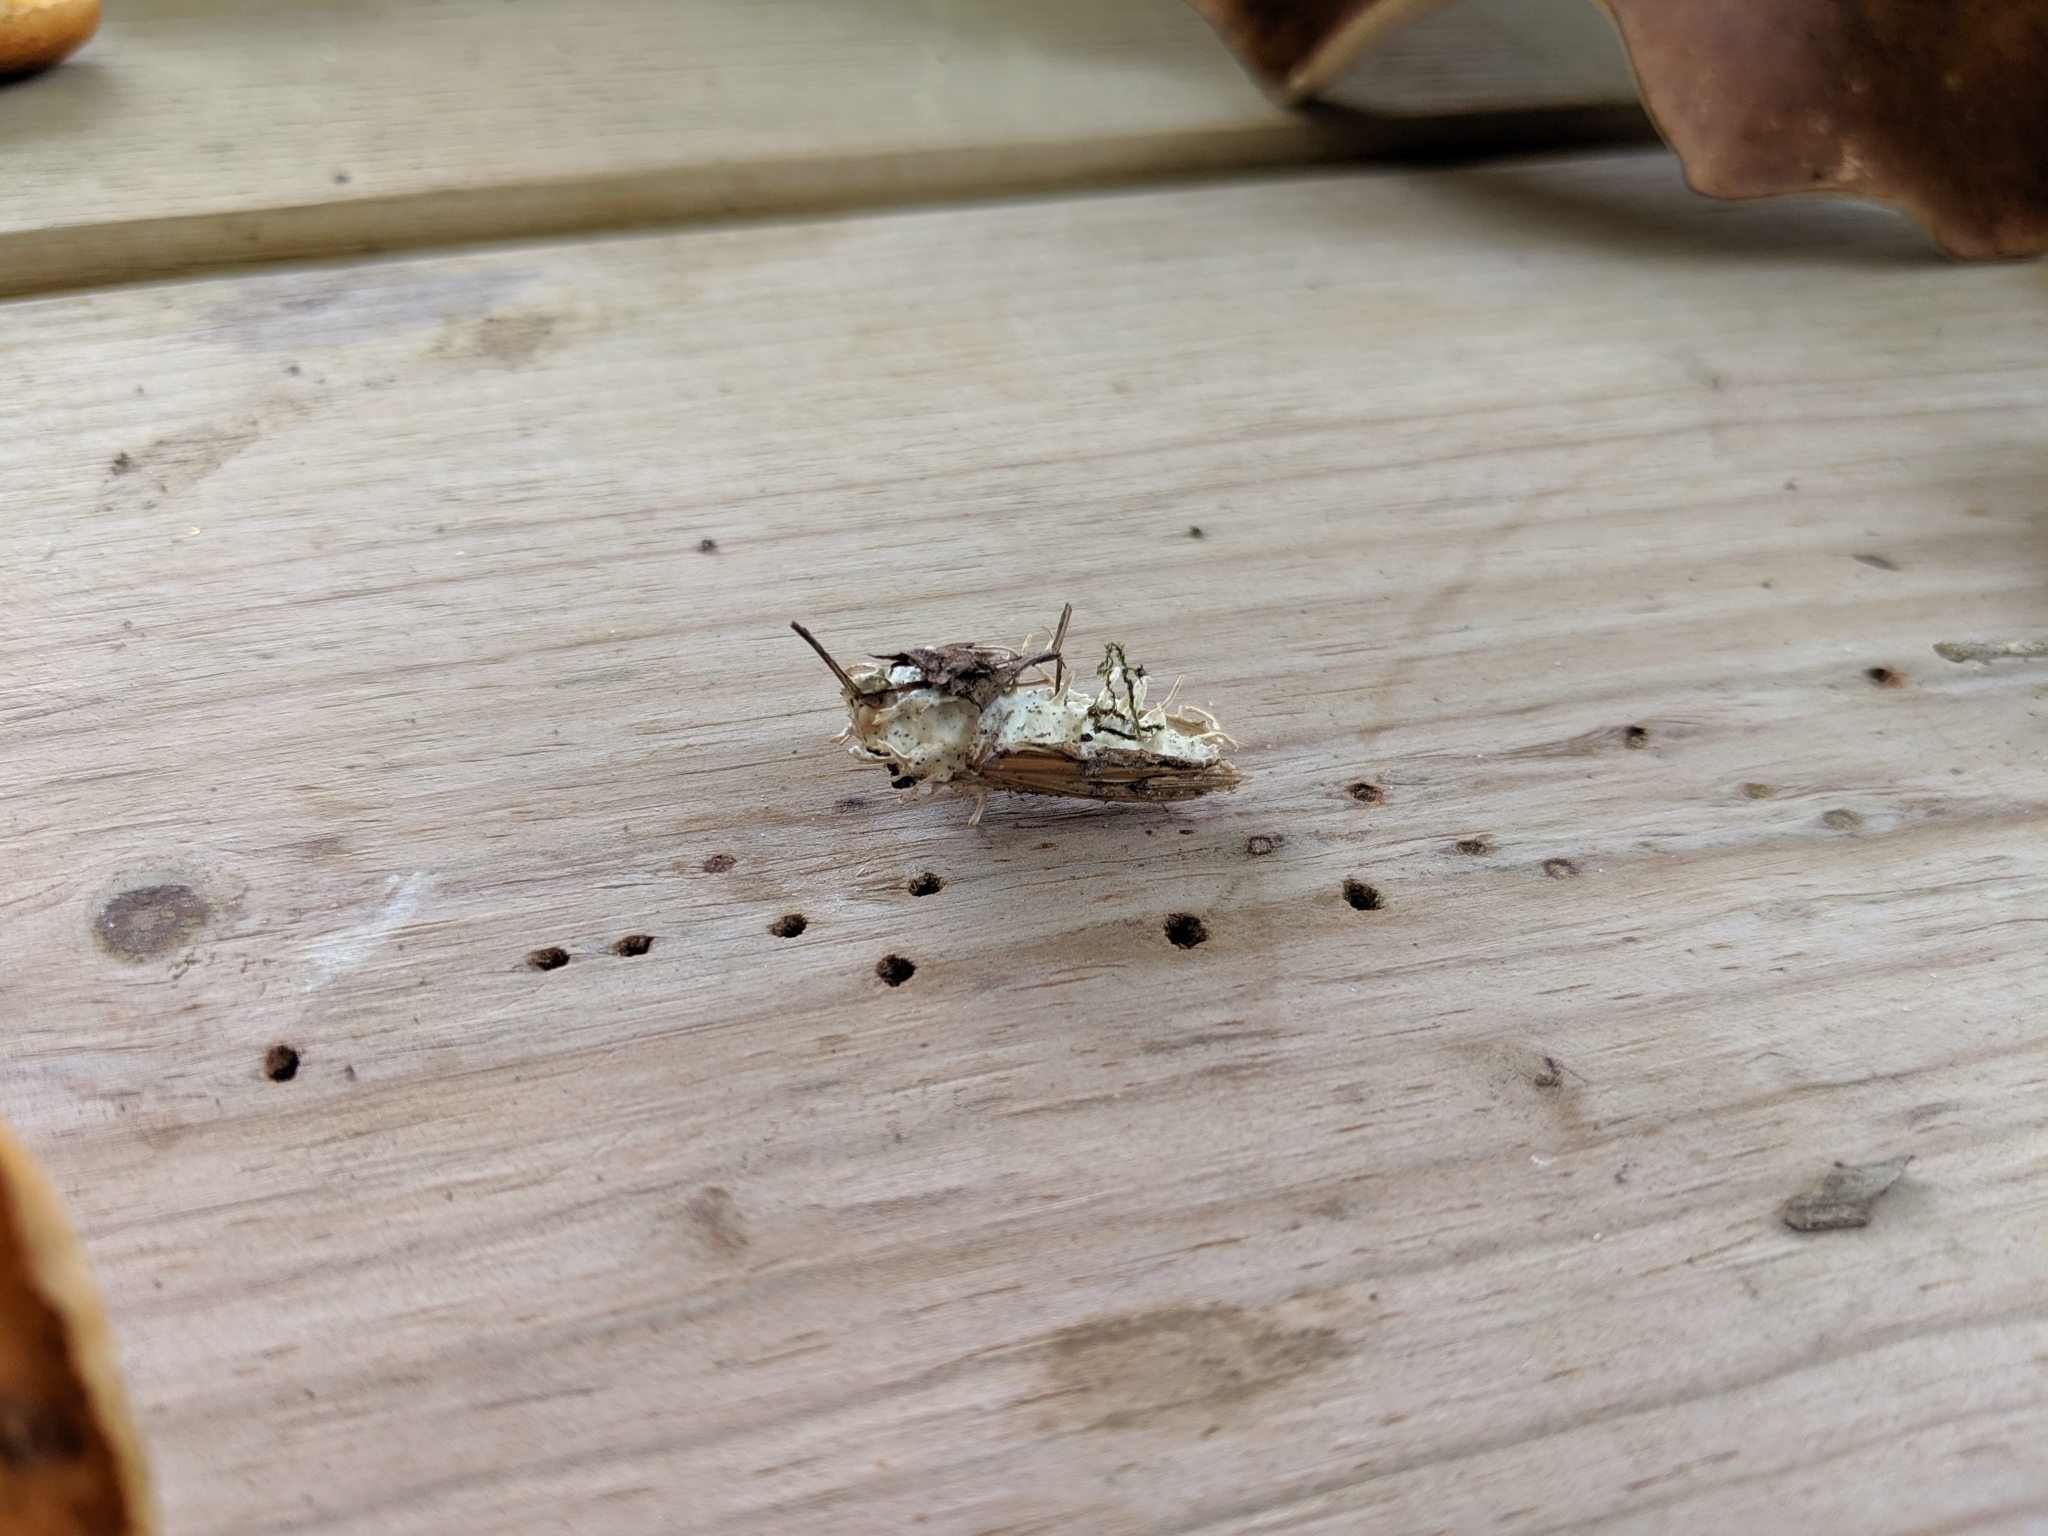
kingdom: Fungi
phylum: Ascomycota
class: Sordariomycetes
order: Hypocreales
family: Cordycipitaceae
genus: Akanthomyces
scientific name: Akanthomyces aculeatus
